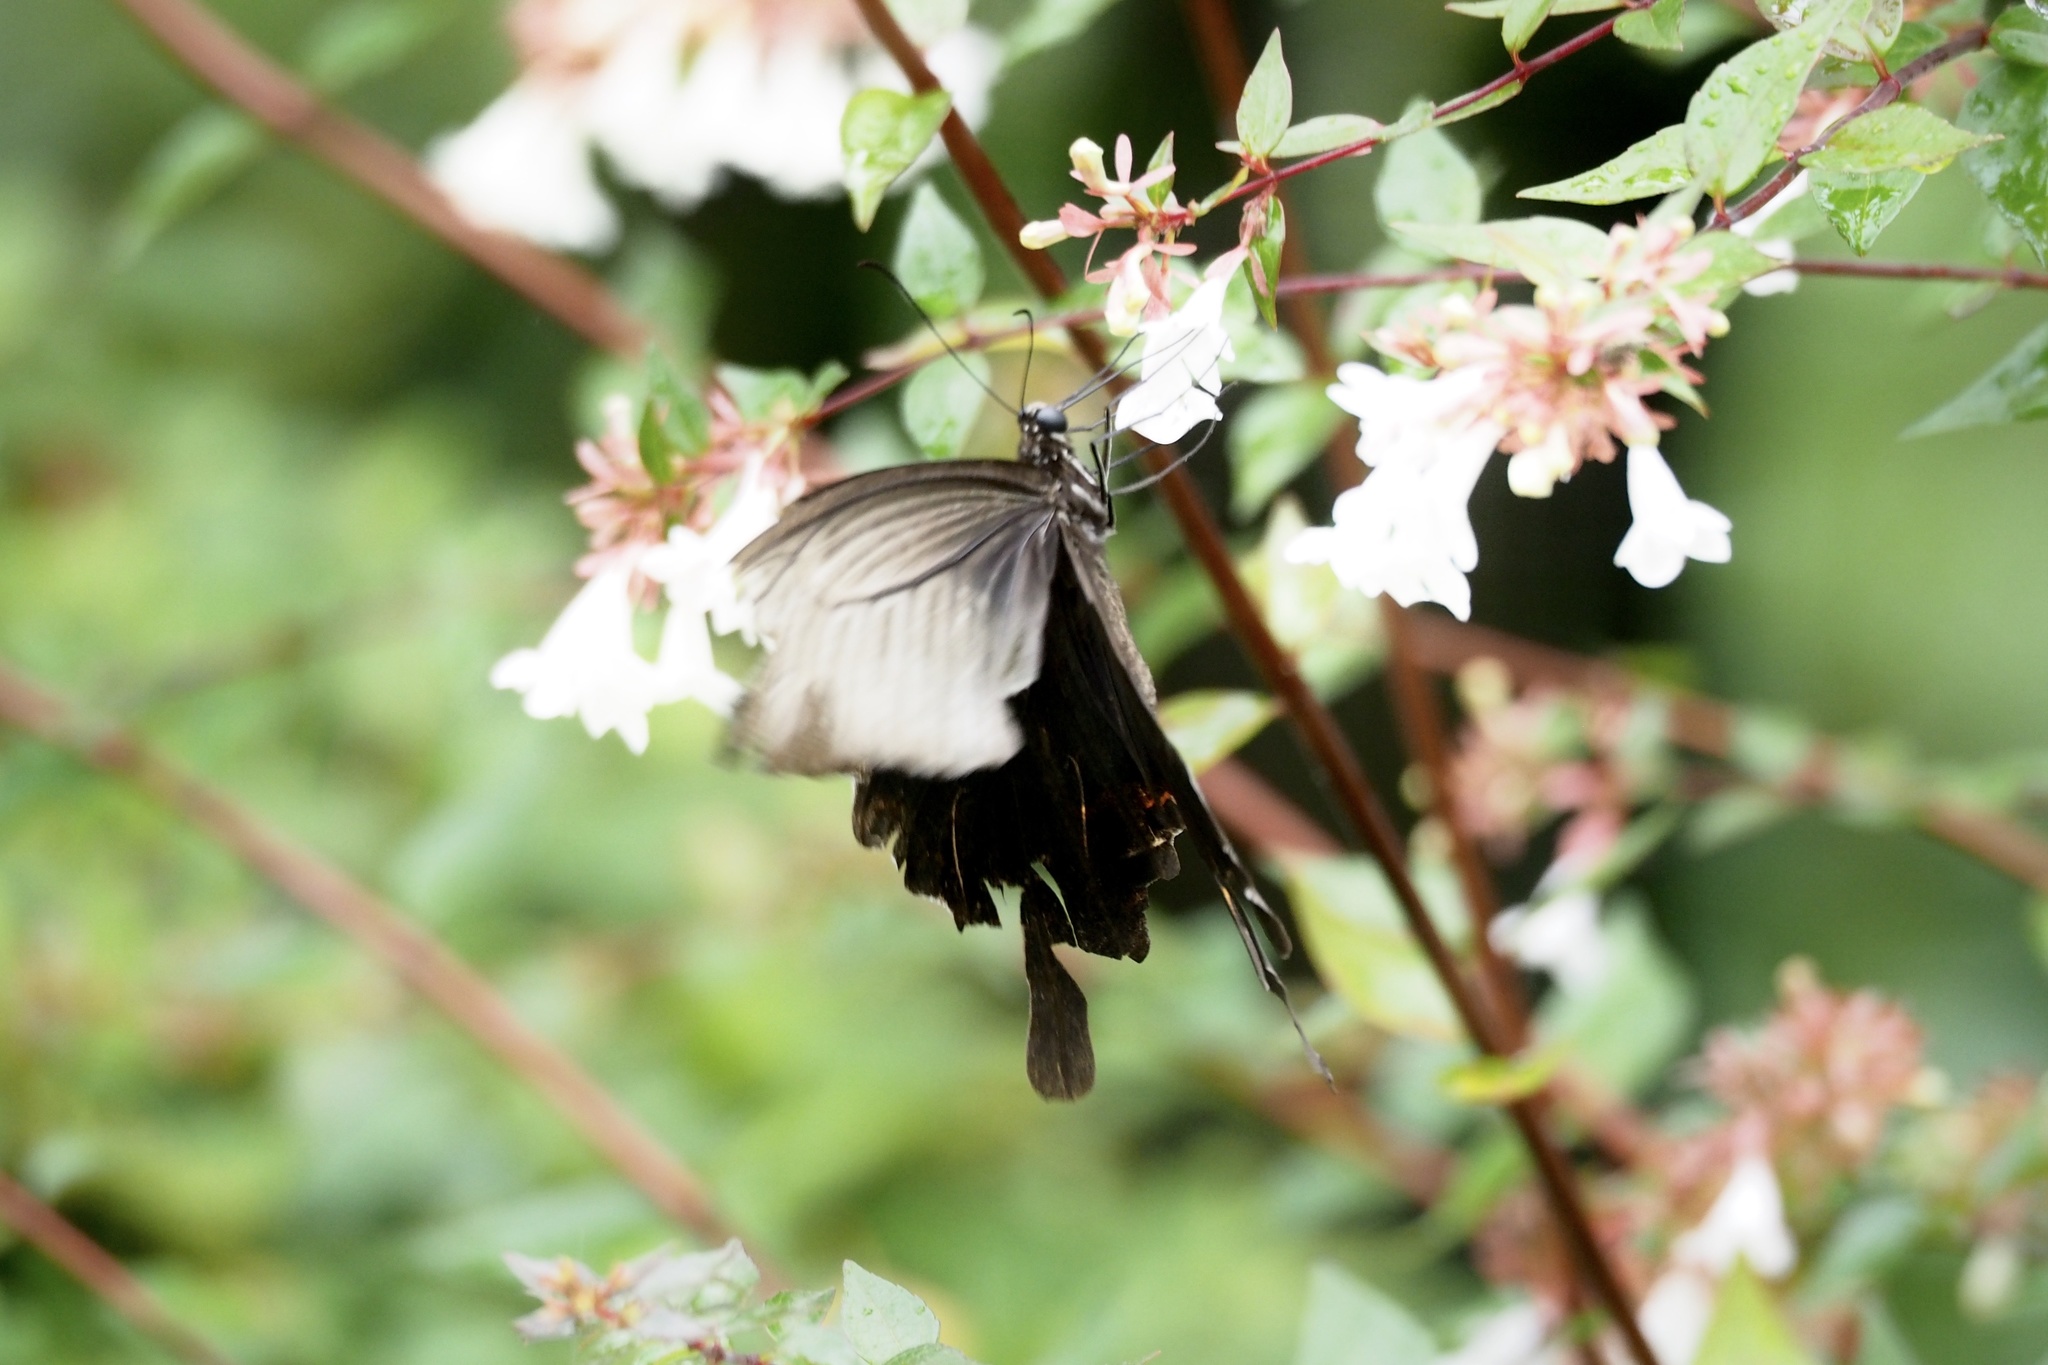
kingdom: Animalia
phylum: Arthropoda
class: Insecta
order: Lepidoptera
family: Papilionidae
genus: Papilio
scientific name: Papilio demetrius
